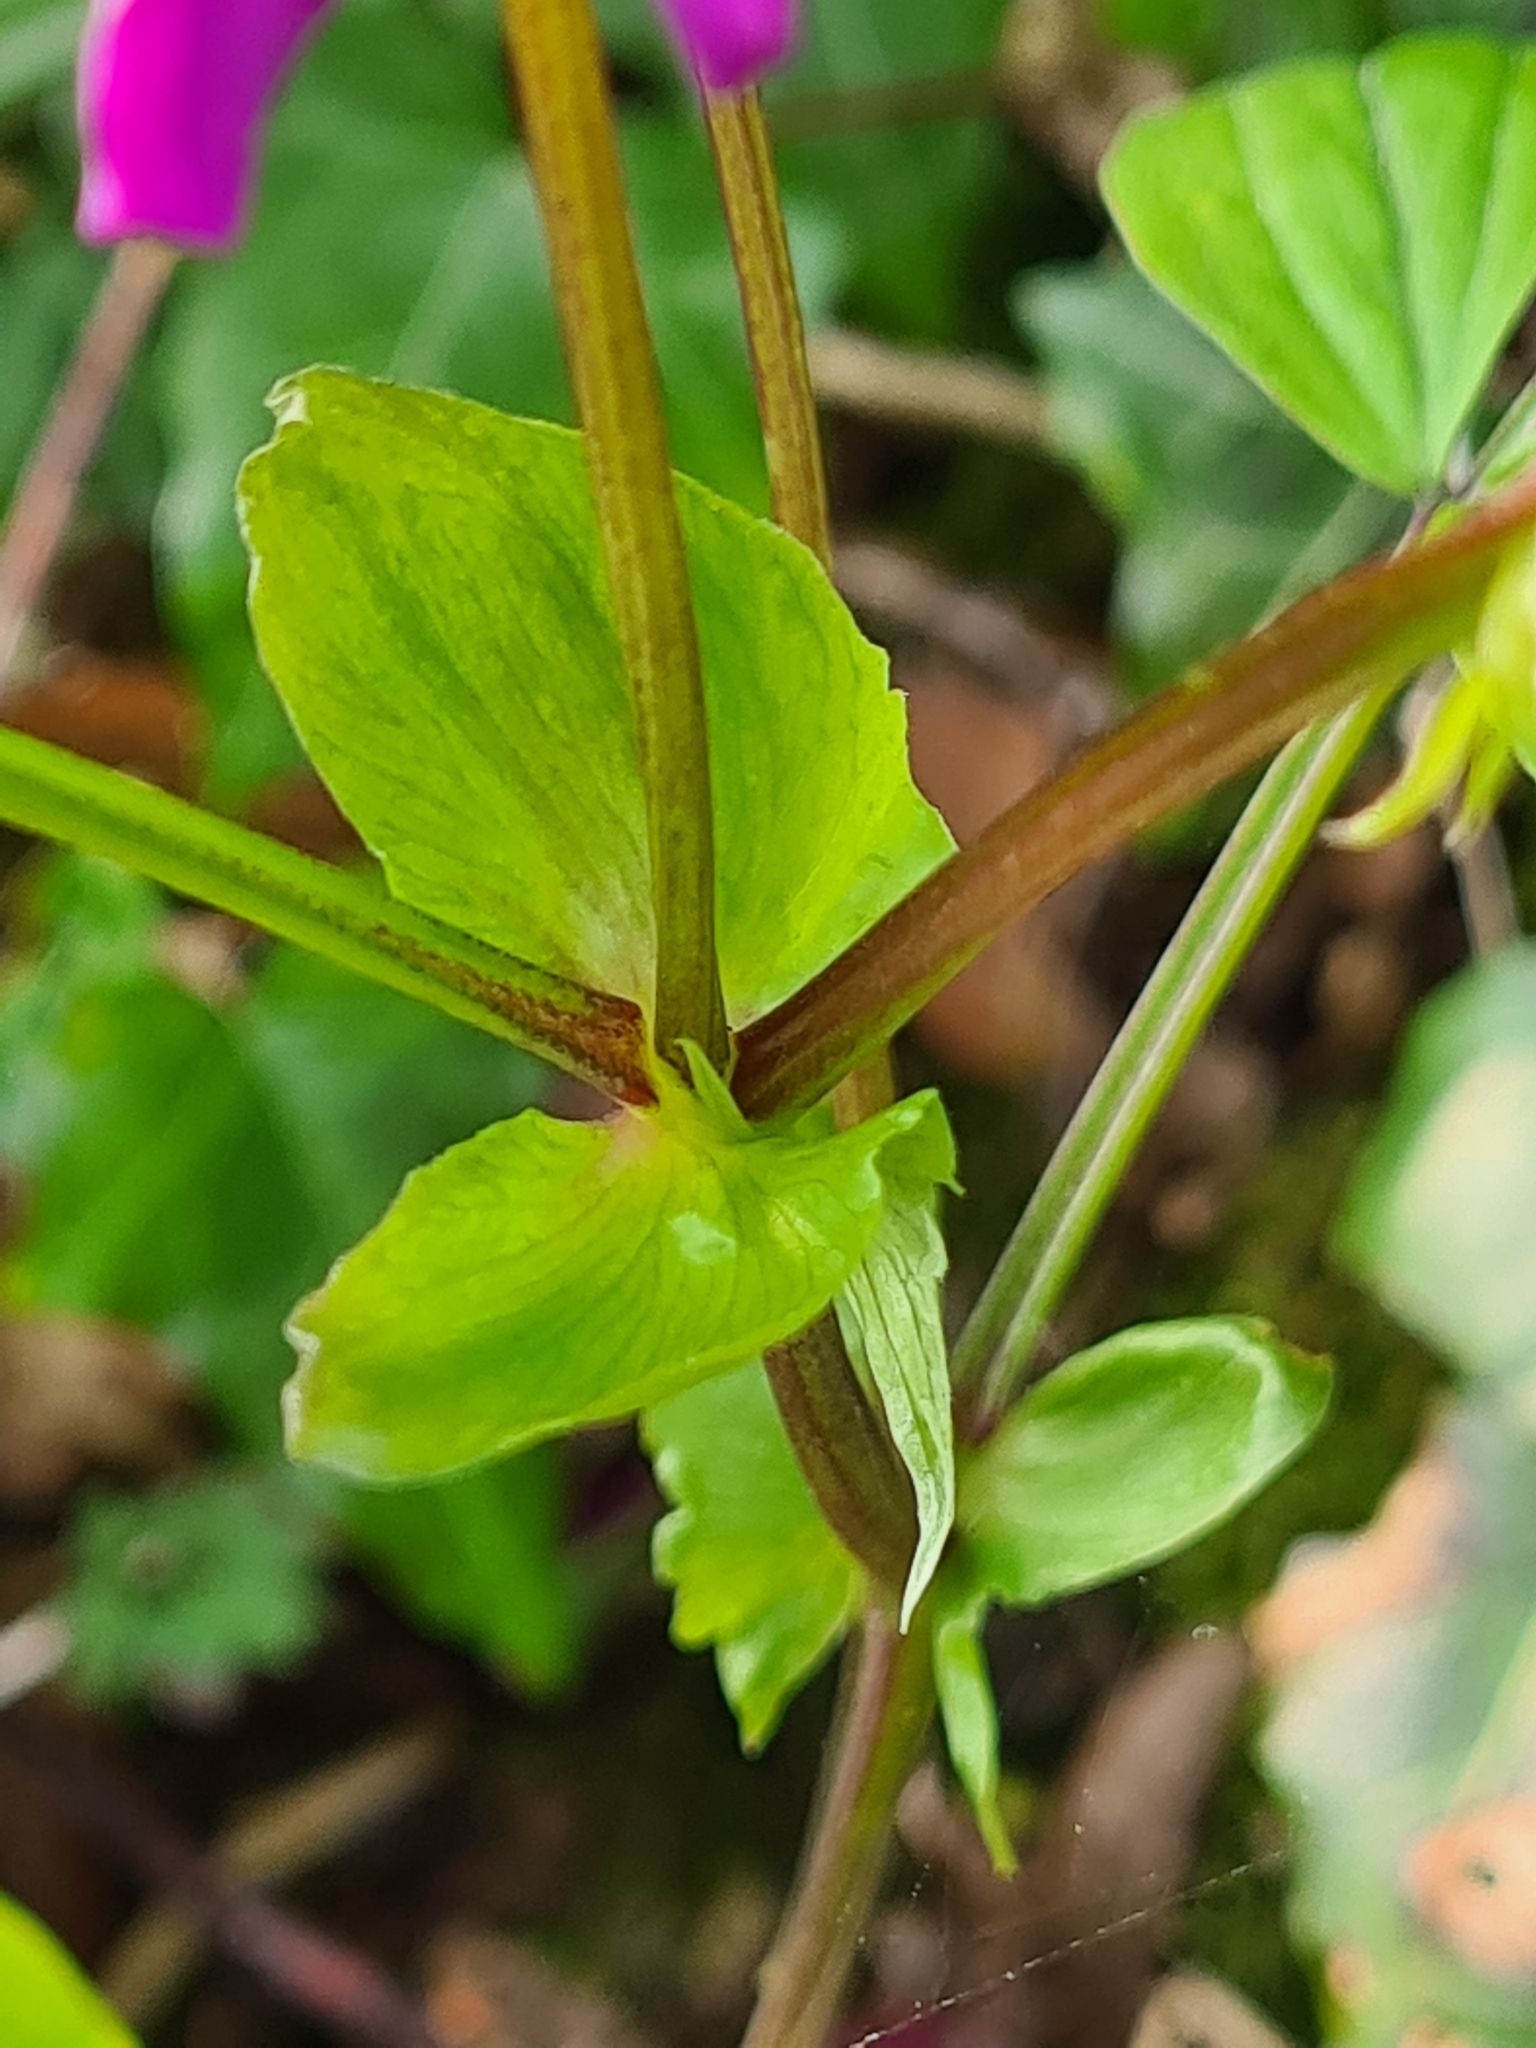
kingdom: Plantae
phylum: Tracheophyta
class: Magnoliopsida
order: Fabales
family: Fabaceae
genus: Lathyrus
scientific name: Lathyrus vernus
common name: Spring pea
